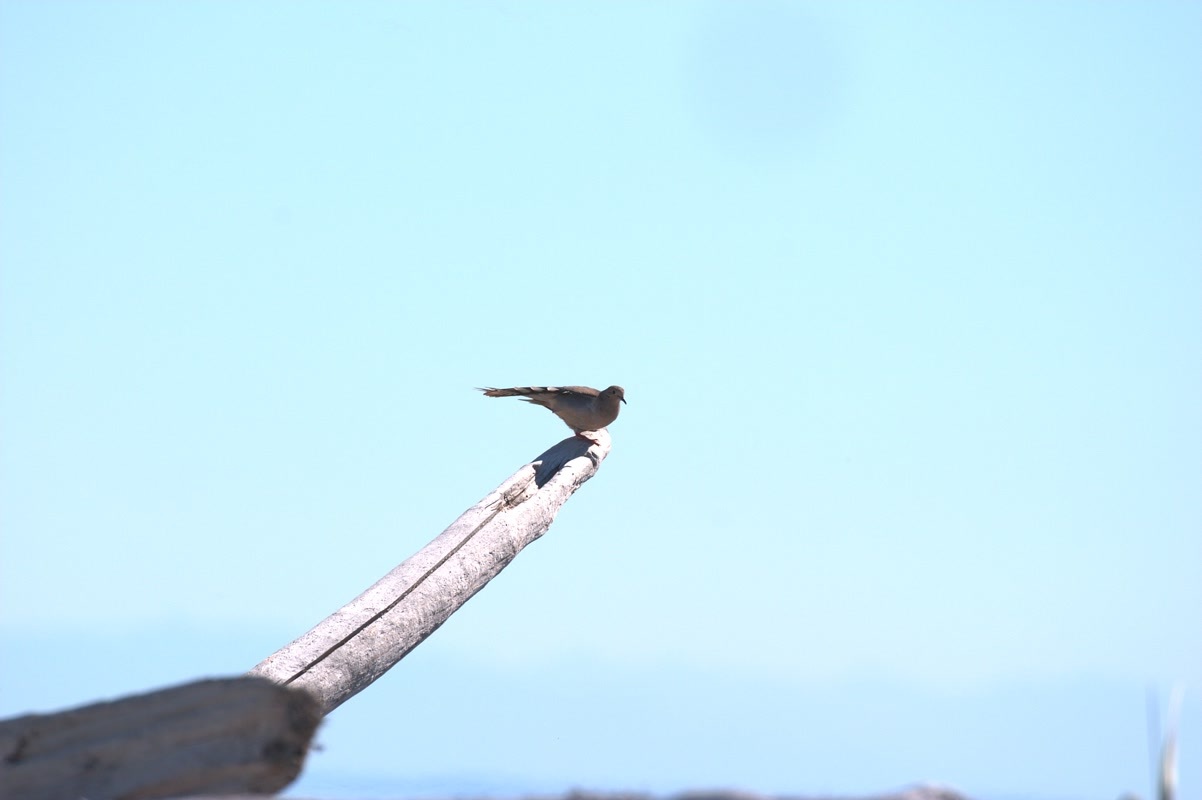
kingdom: Animalia
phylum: Chordata
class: Aves
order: Columbiformes
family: Columbidae
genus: Zenaida
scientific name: Zenaida macroura
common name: Mourning dove
